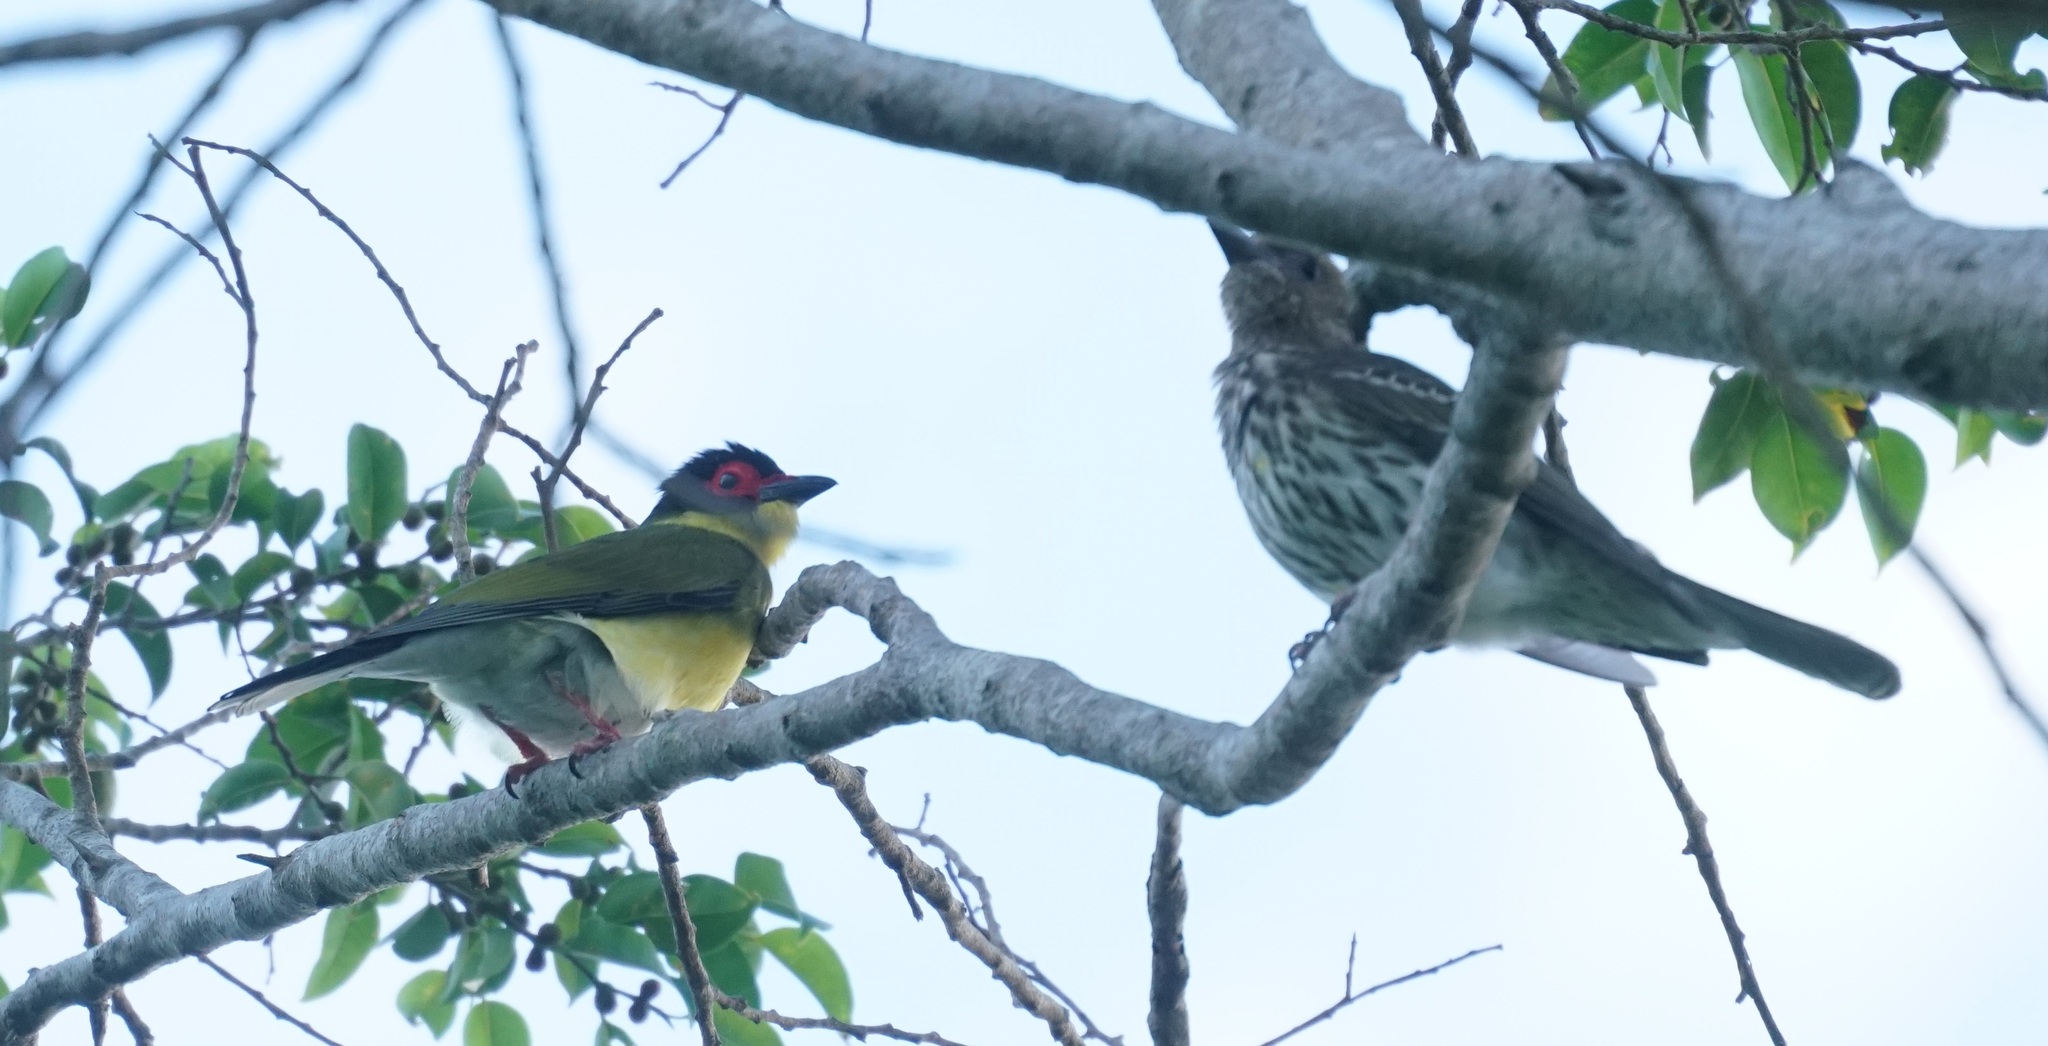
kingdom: Animalia
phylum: Chordata
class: Aves
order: Passeriformes
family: Oriolidae
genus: Sphecotheres
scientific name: Sphecotheres vieilloti
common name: Australasian figbird
